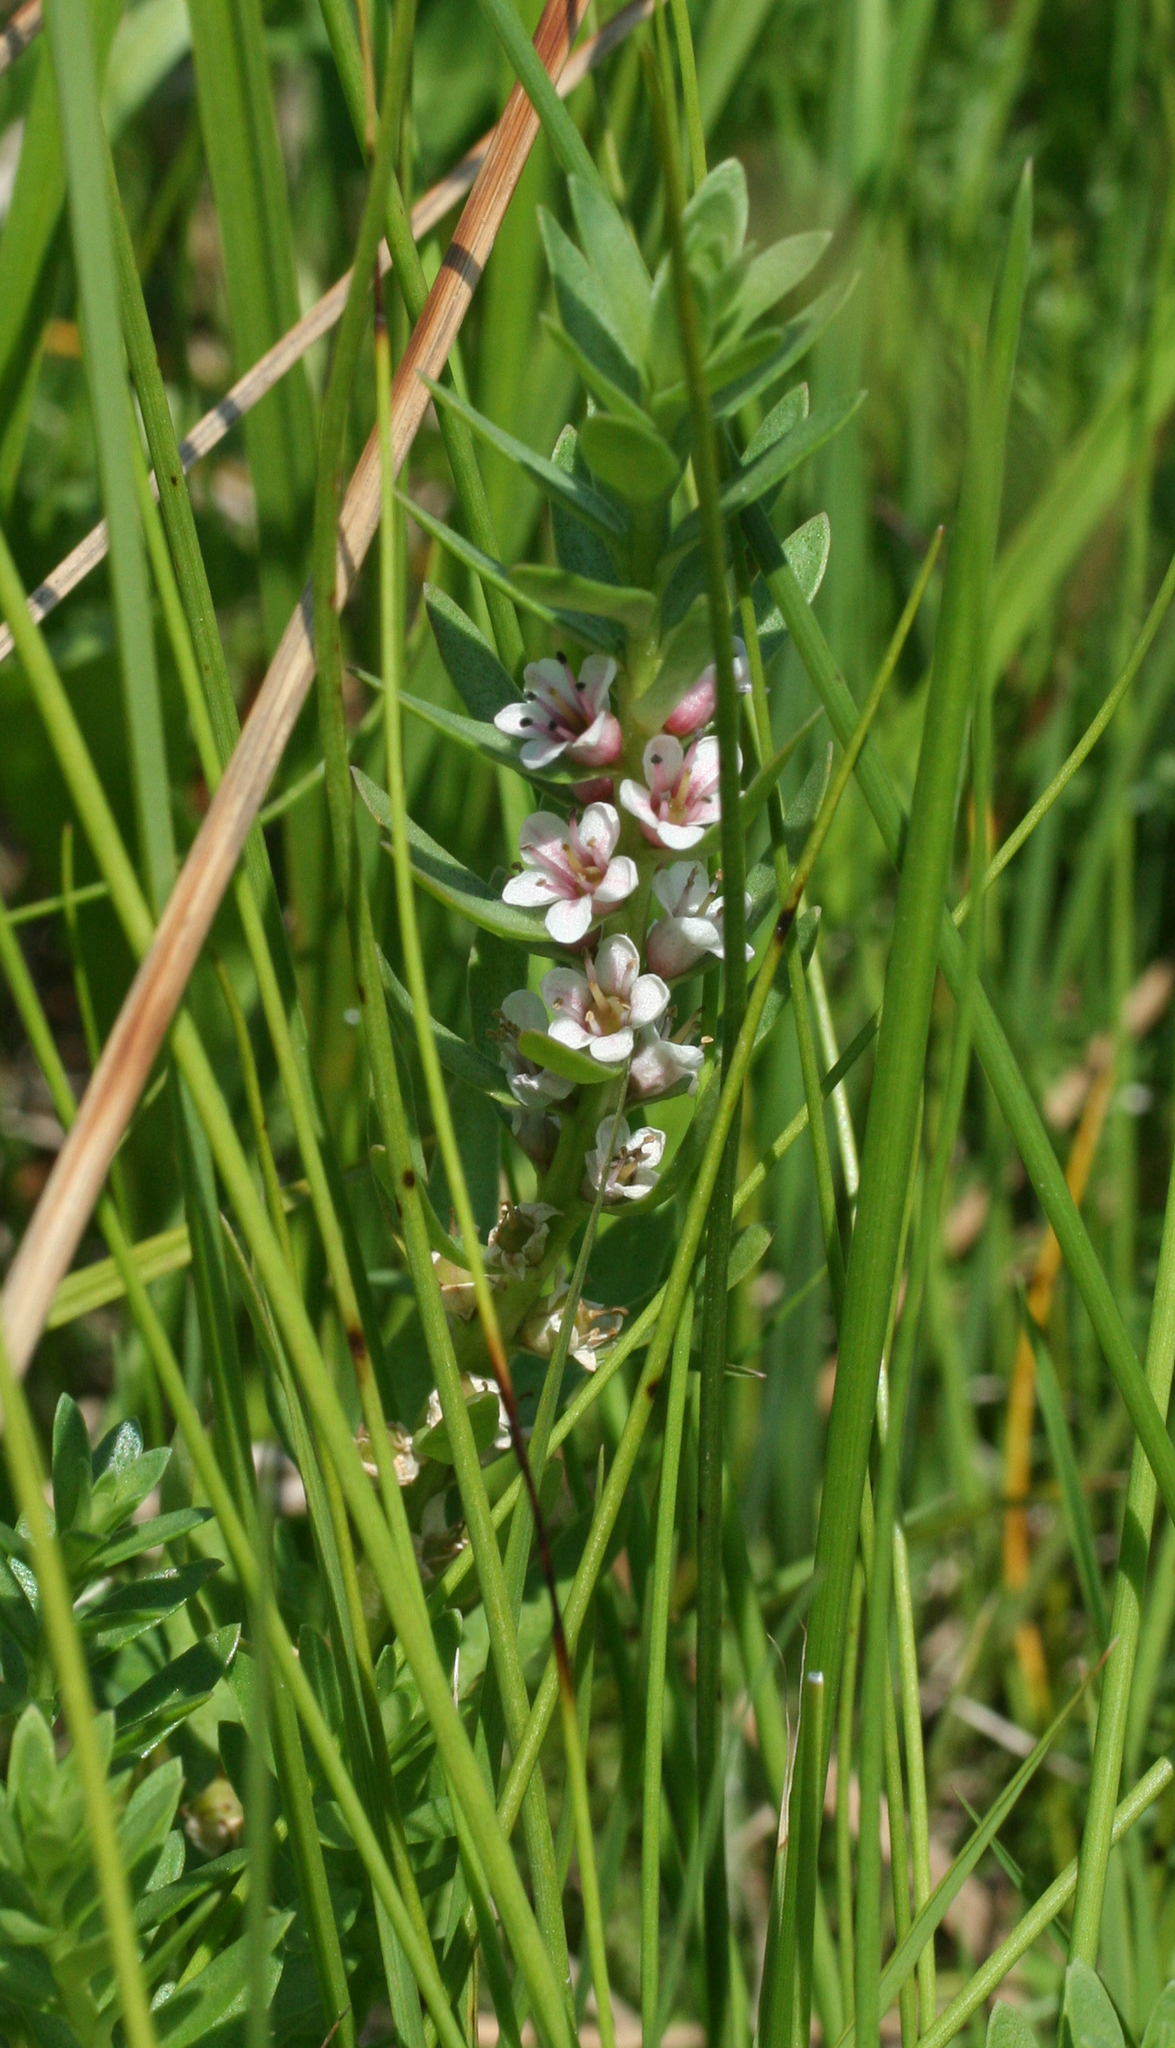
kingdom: Plantae
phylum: Tracheophyta
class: Magnoliopsida
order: Ericales
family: Primulaceae
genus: Lysimachia
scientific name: Lysimachia maritima
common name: Sea milkwort
